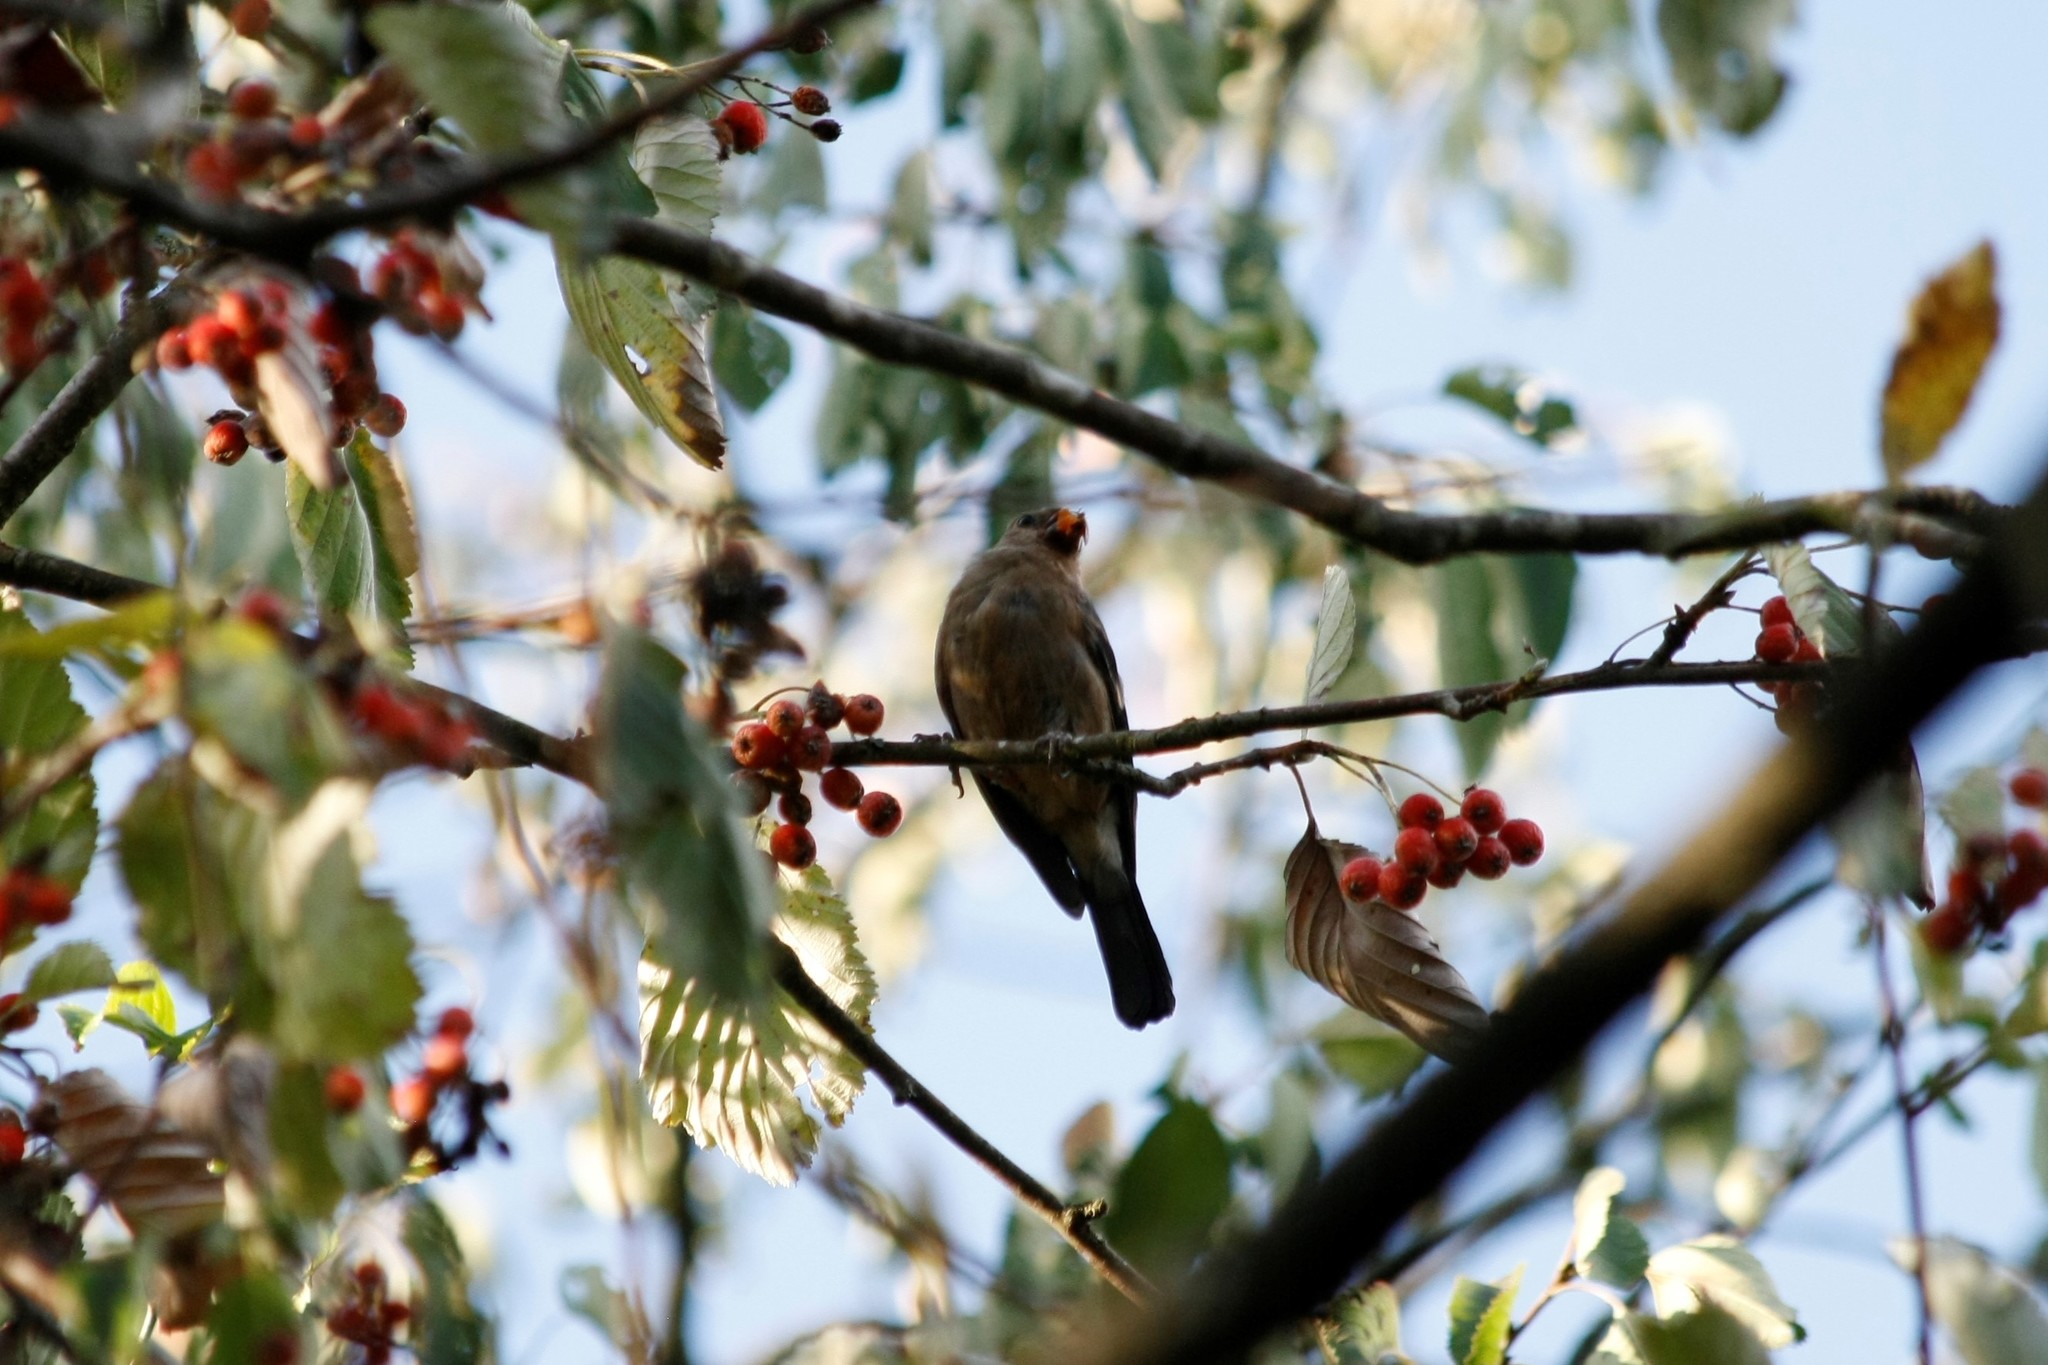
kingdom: Animalia
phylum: Chordata
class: Aves
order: Passeriformes
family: Fringillidae
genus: Pyrrhula
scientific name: Pyrrhula pyrrhula
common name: Eurasian bullfinch
